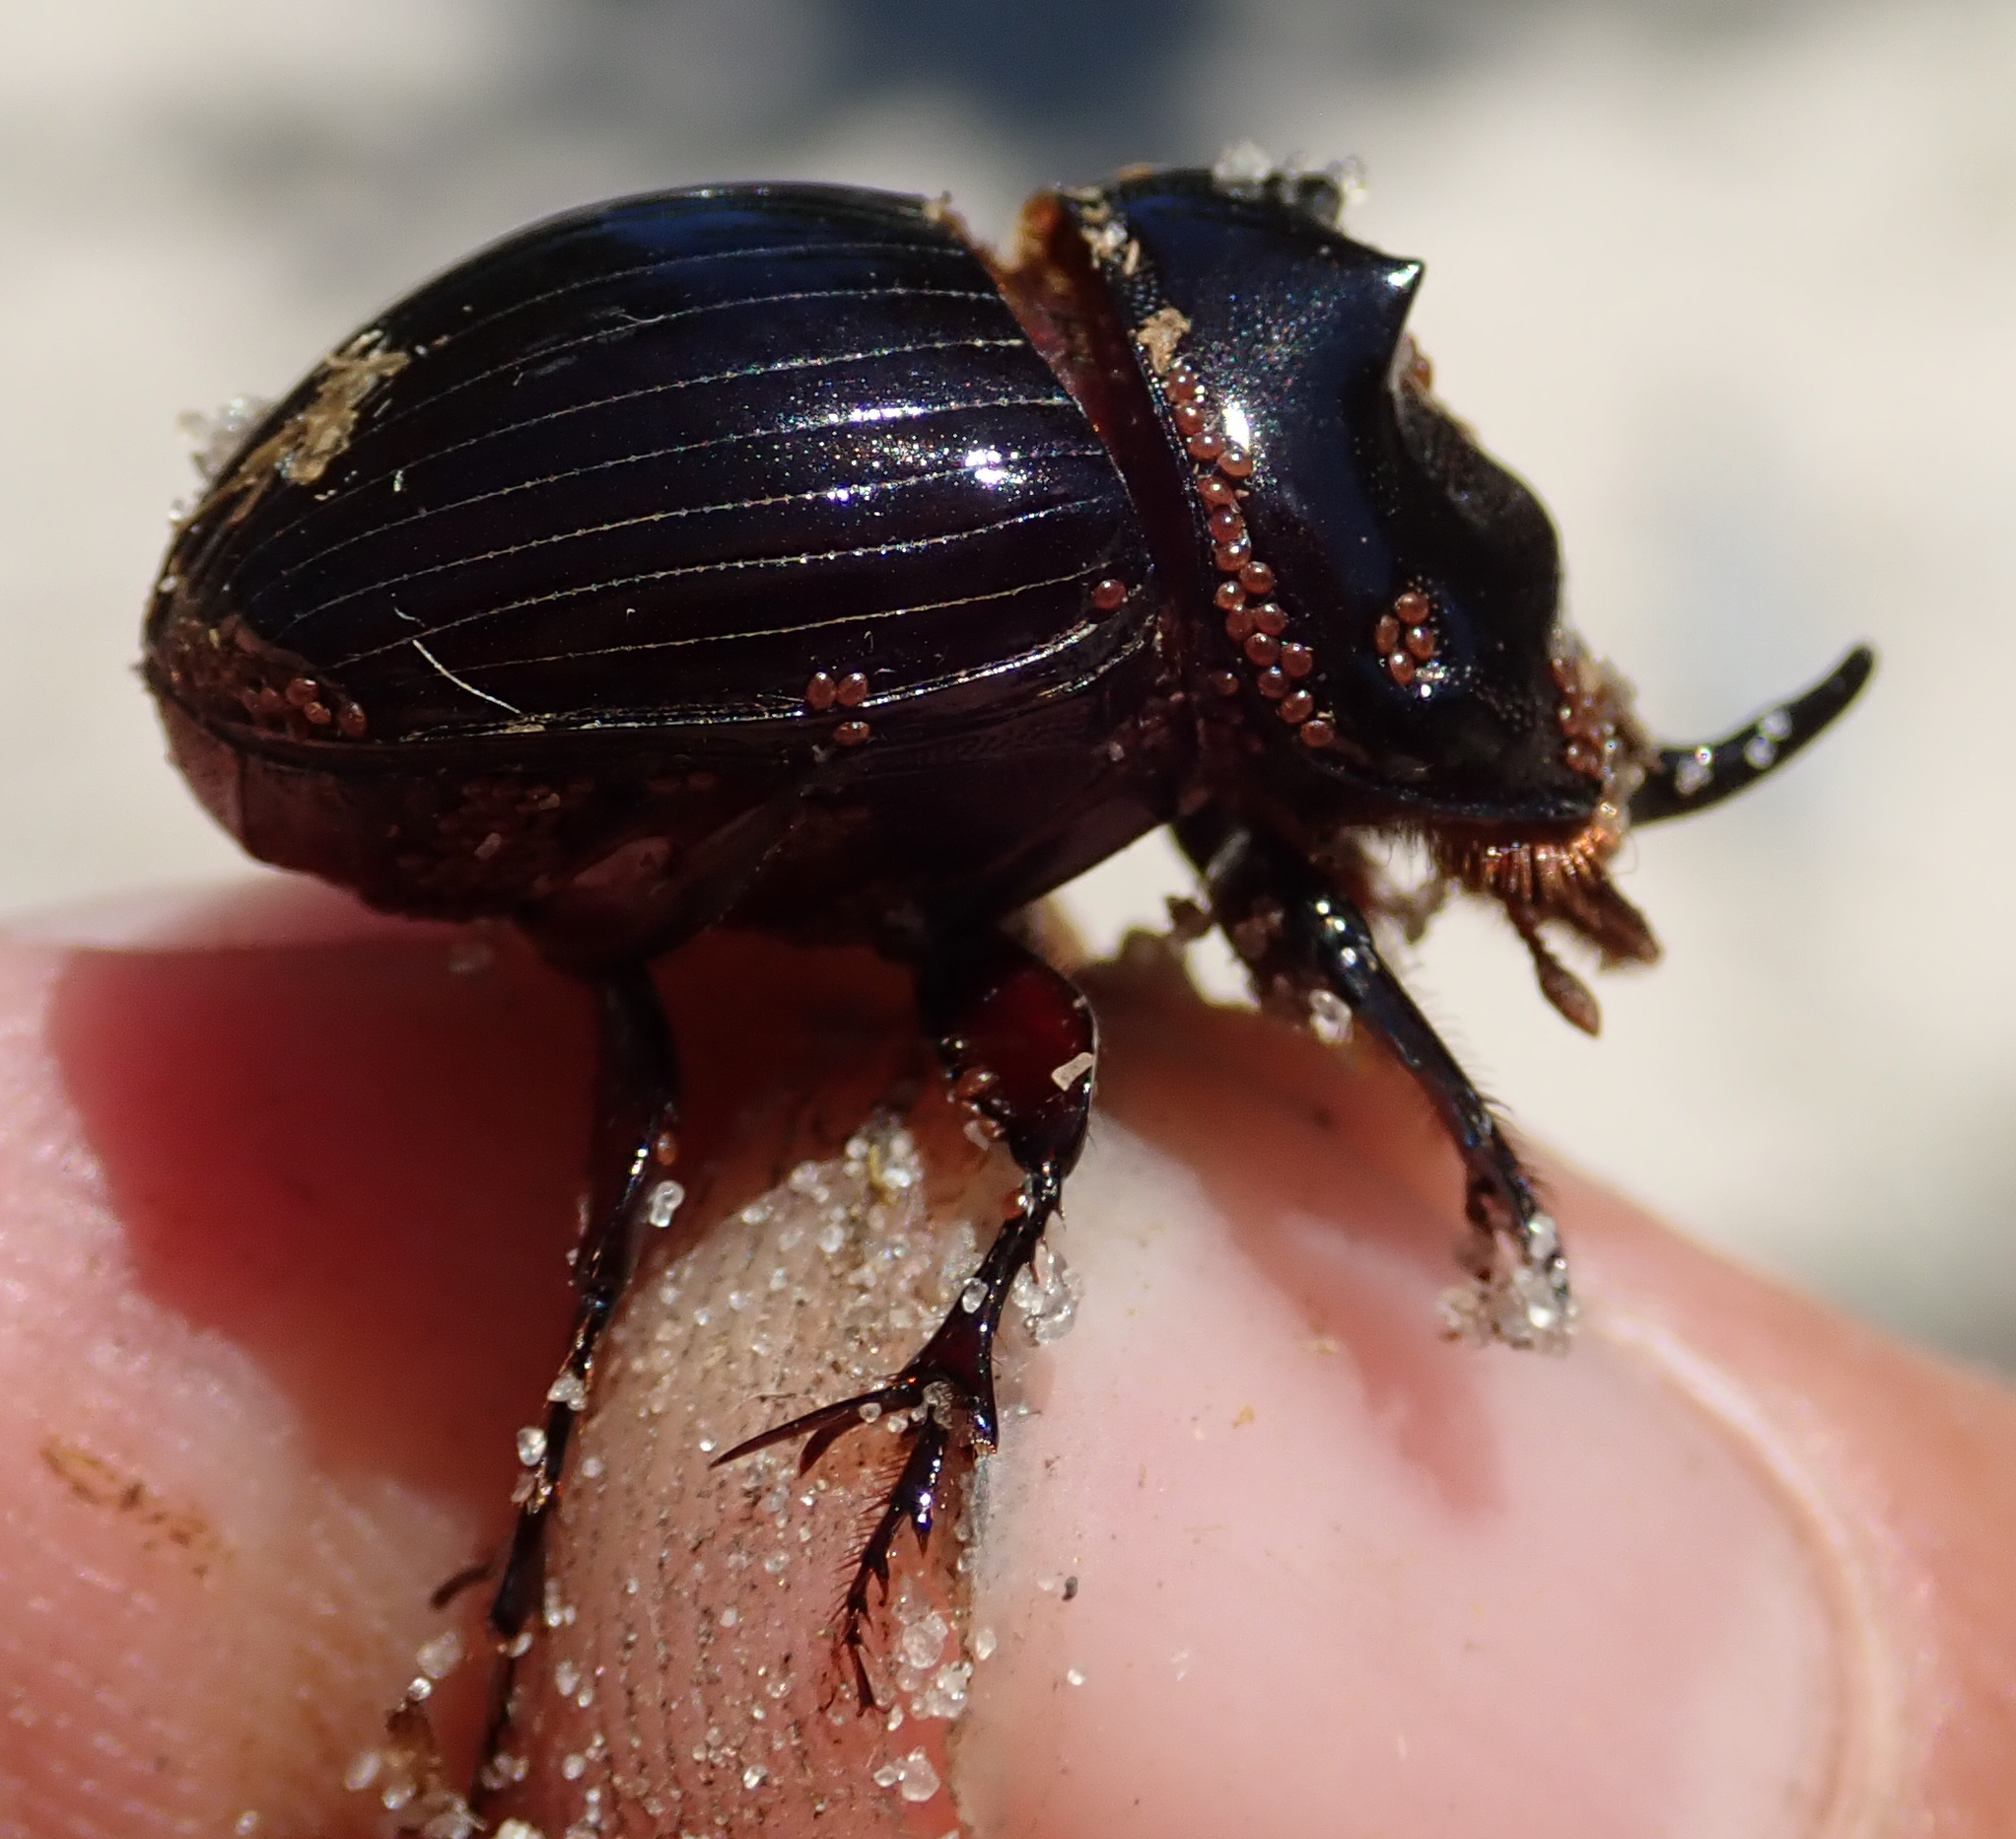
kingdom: Animalia
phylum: Arthropoda
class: Insecta
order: Coleoptera
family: Scarabaeidae
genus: Copris
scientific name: Copris elphenor
